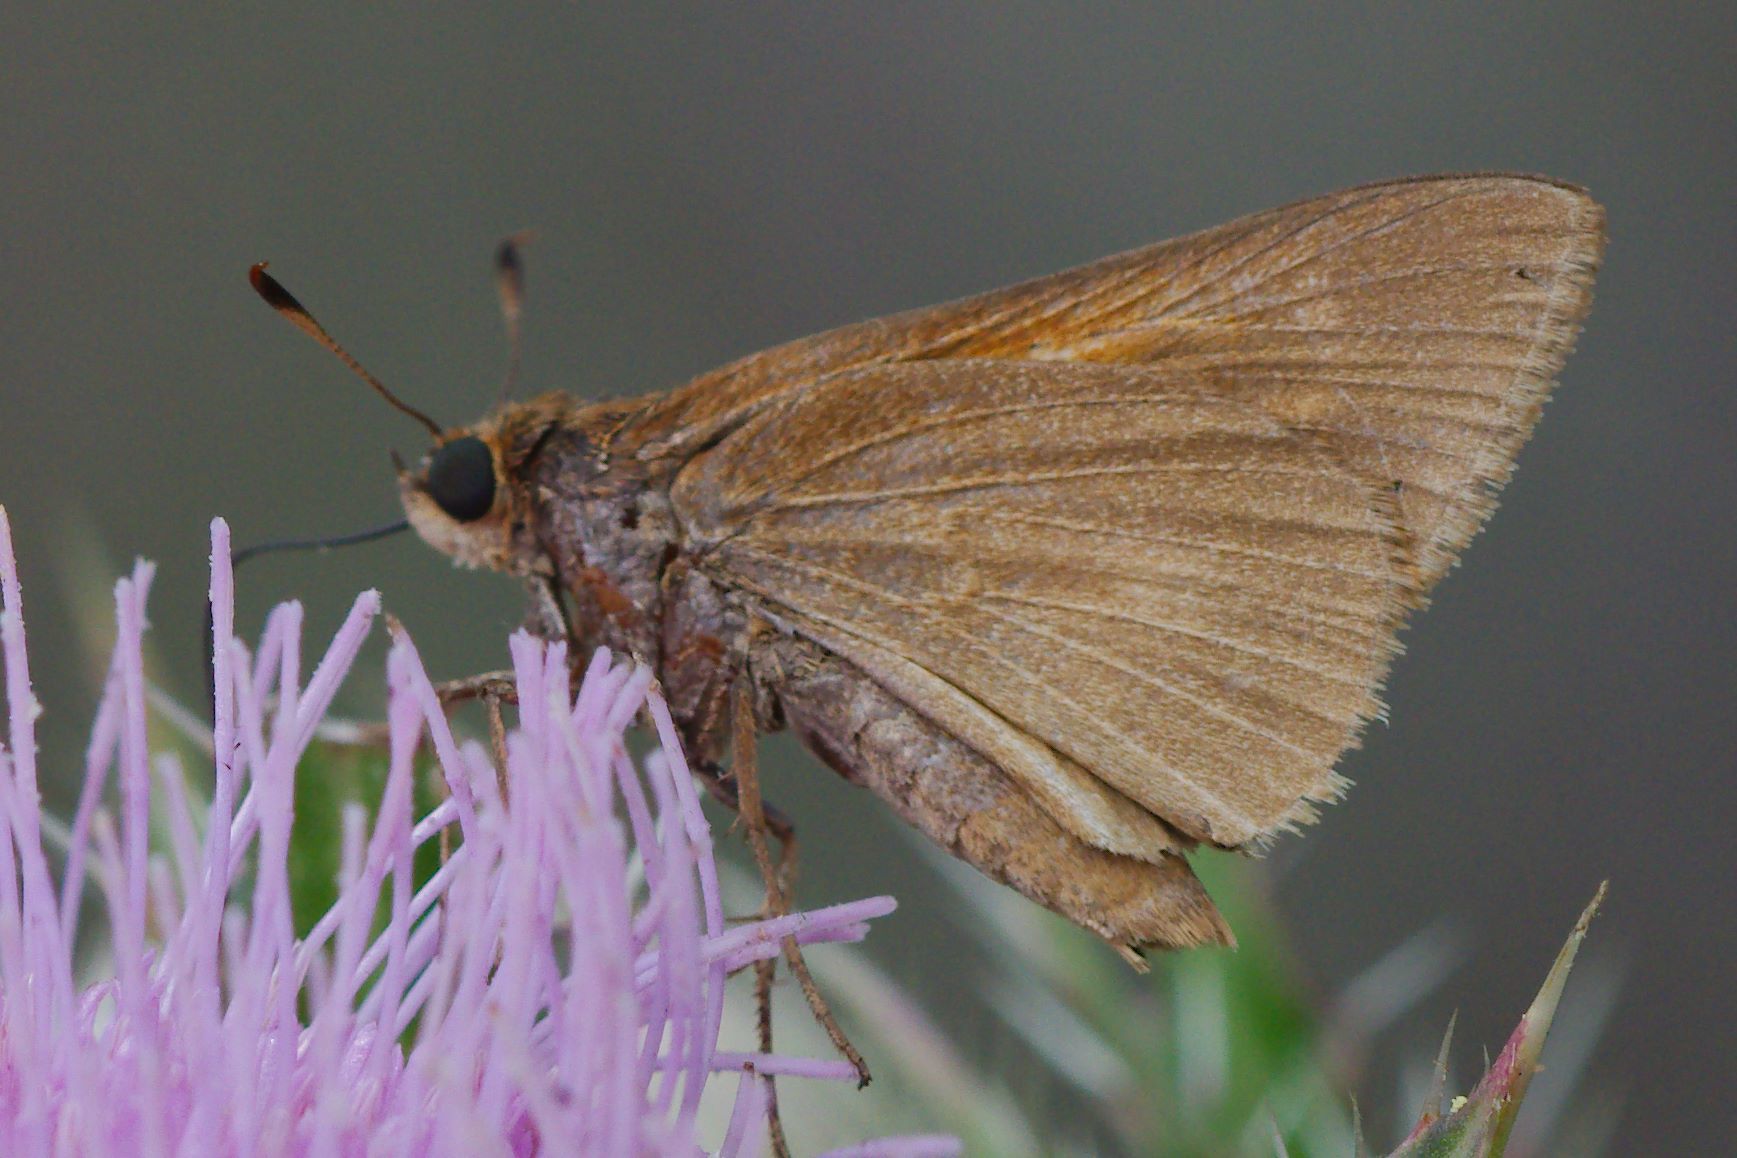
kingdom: Animalia
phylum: Arthropoda
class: Insecta
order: Lepidoptera
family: Hesperiidae
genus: Euphyes
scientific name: Euphyes pilatka
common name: Palatka skipper
